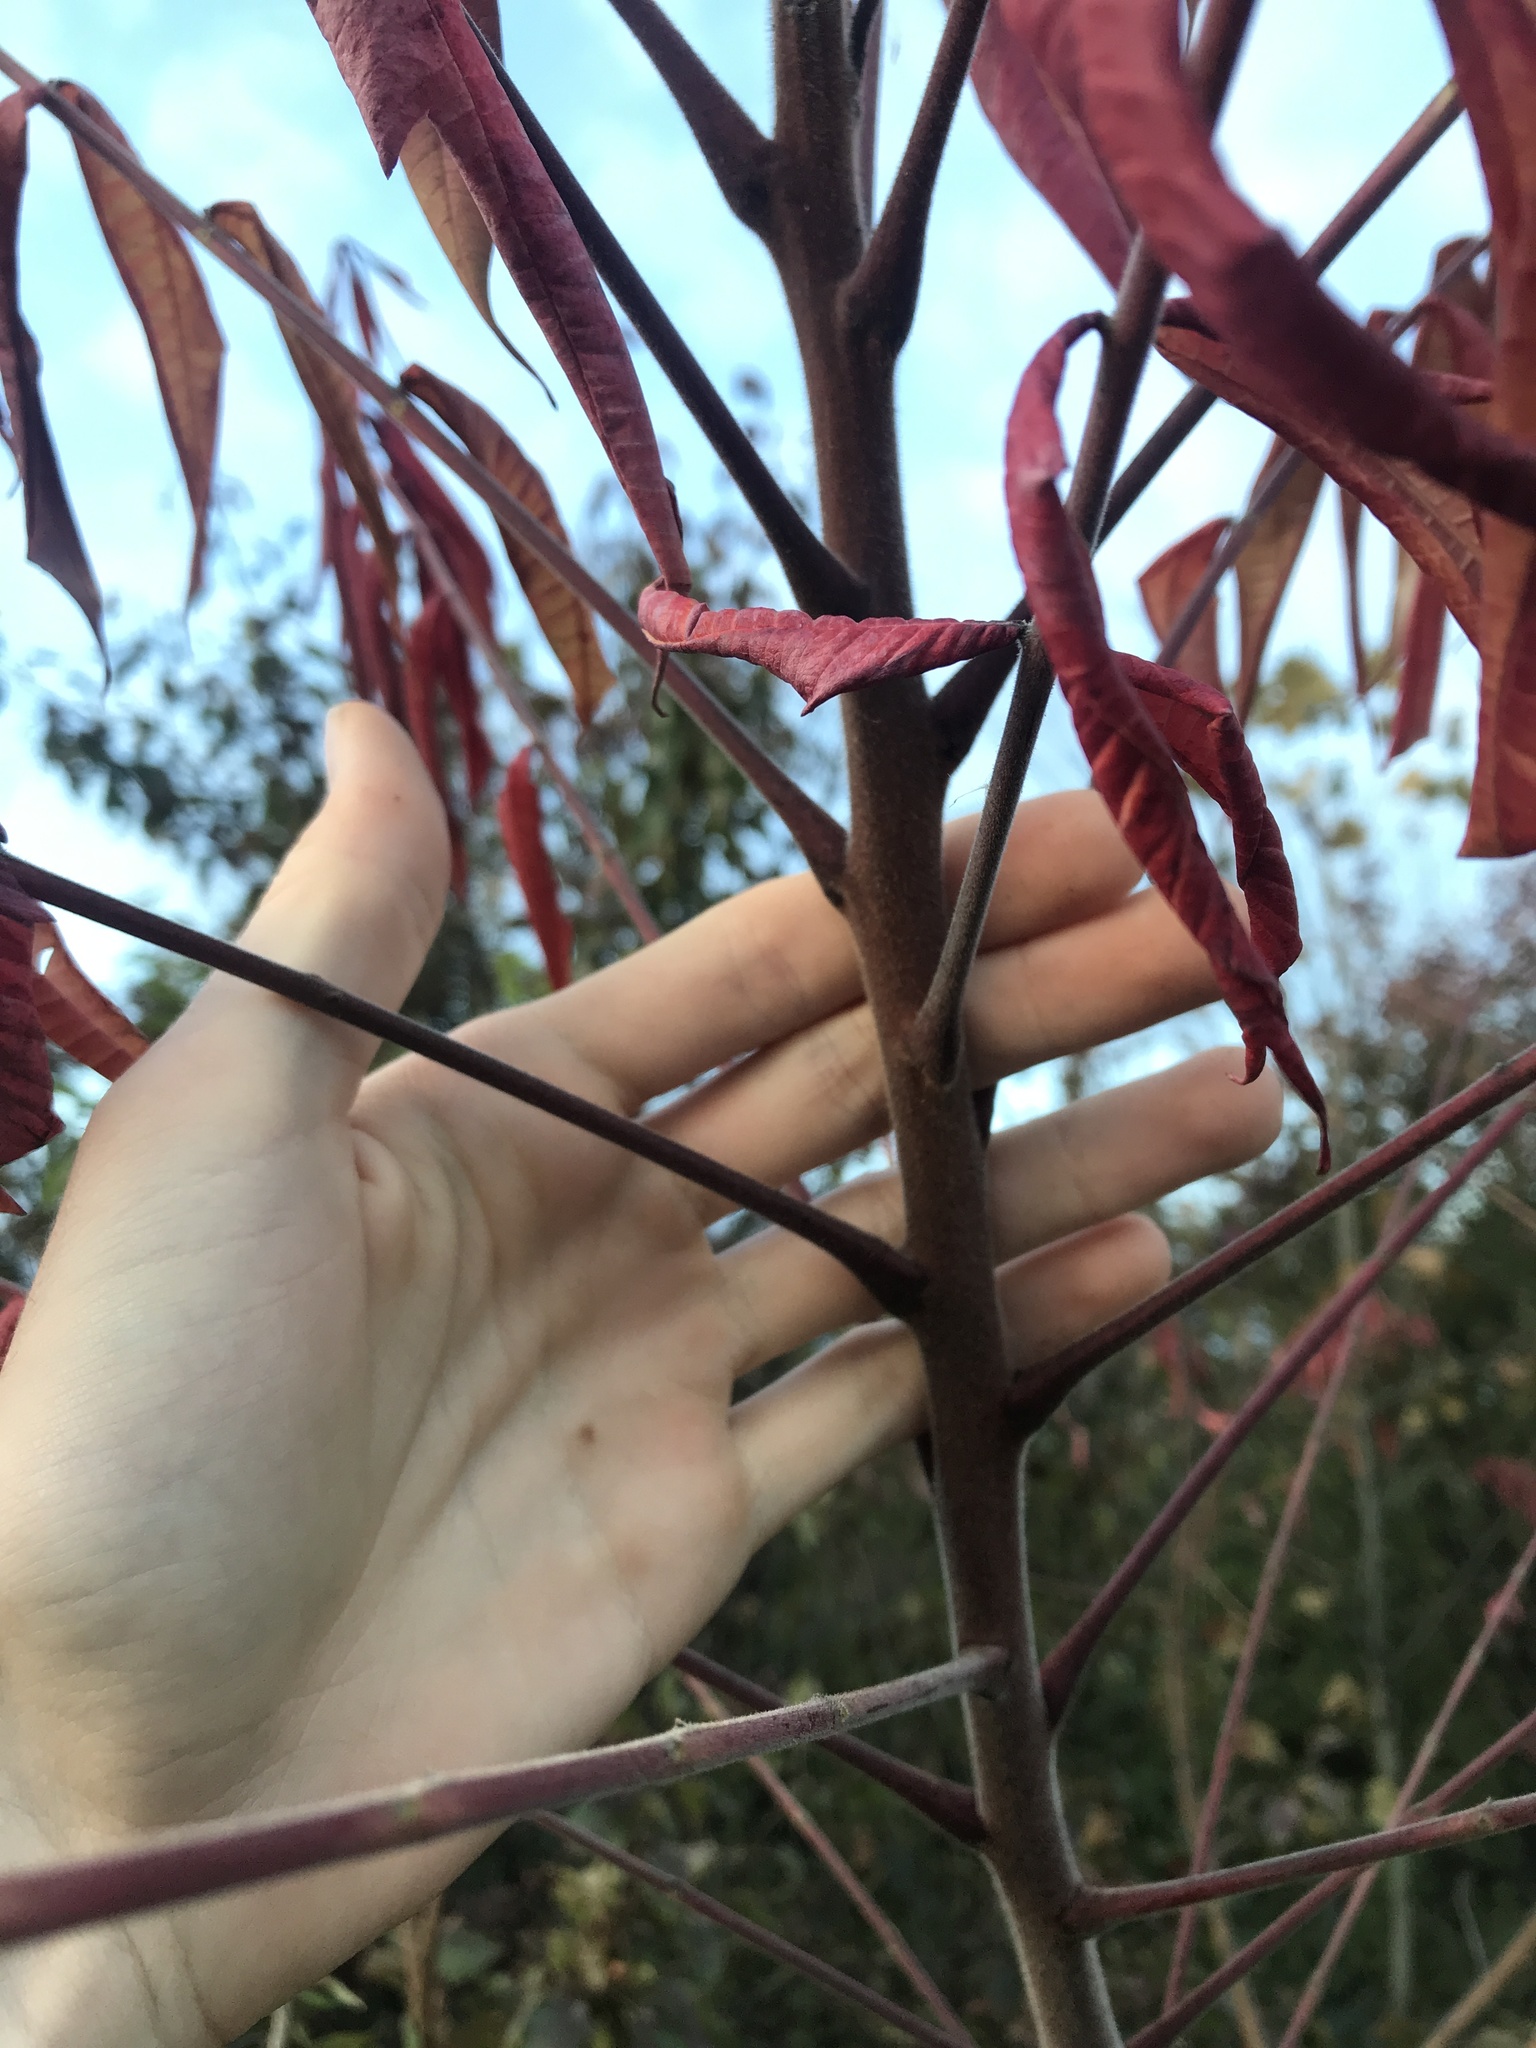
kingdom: Plantae
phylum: Tracheophyta
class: Magnoliopsida
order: Sapindales
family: Anacardiaceae
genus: Rhus
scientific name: Rhus typhina
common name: Staghorn sumac
